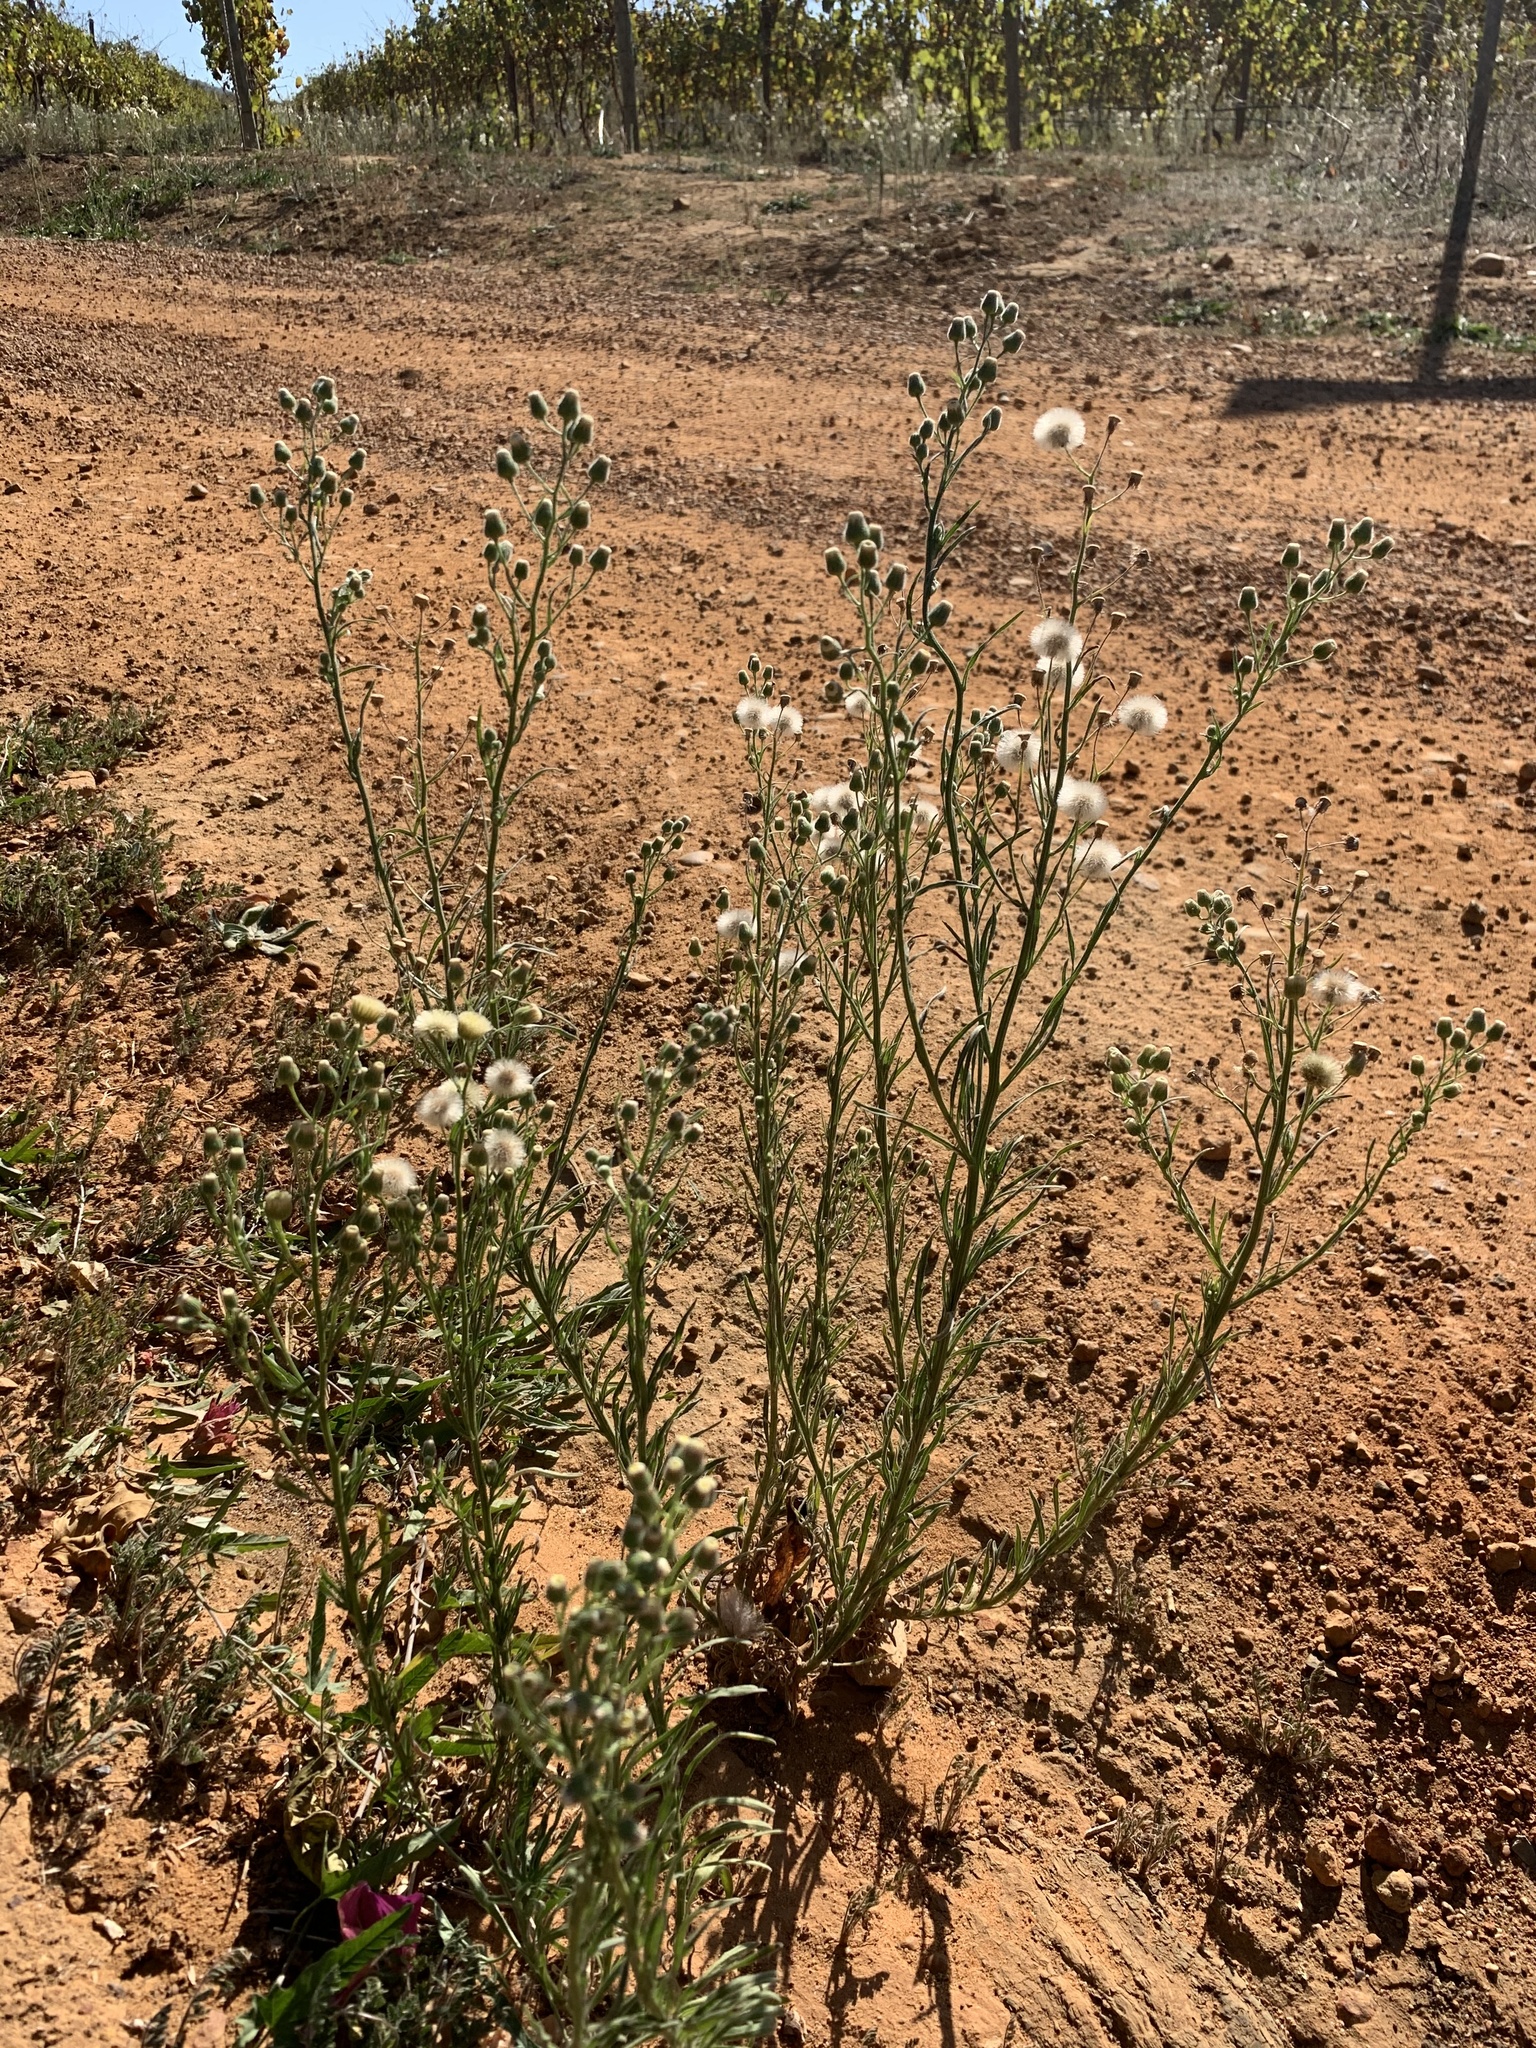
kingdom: Plantae
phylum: Tracheophyta
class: Magnoliopsida
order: Asterales
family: Asteraceae
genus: Erigeron
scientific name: Erigeron bonariensis
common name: Argentine fleabane
